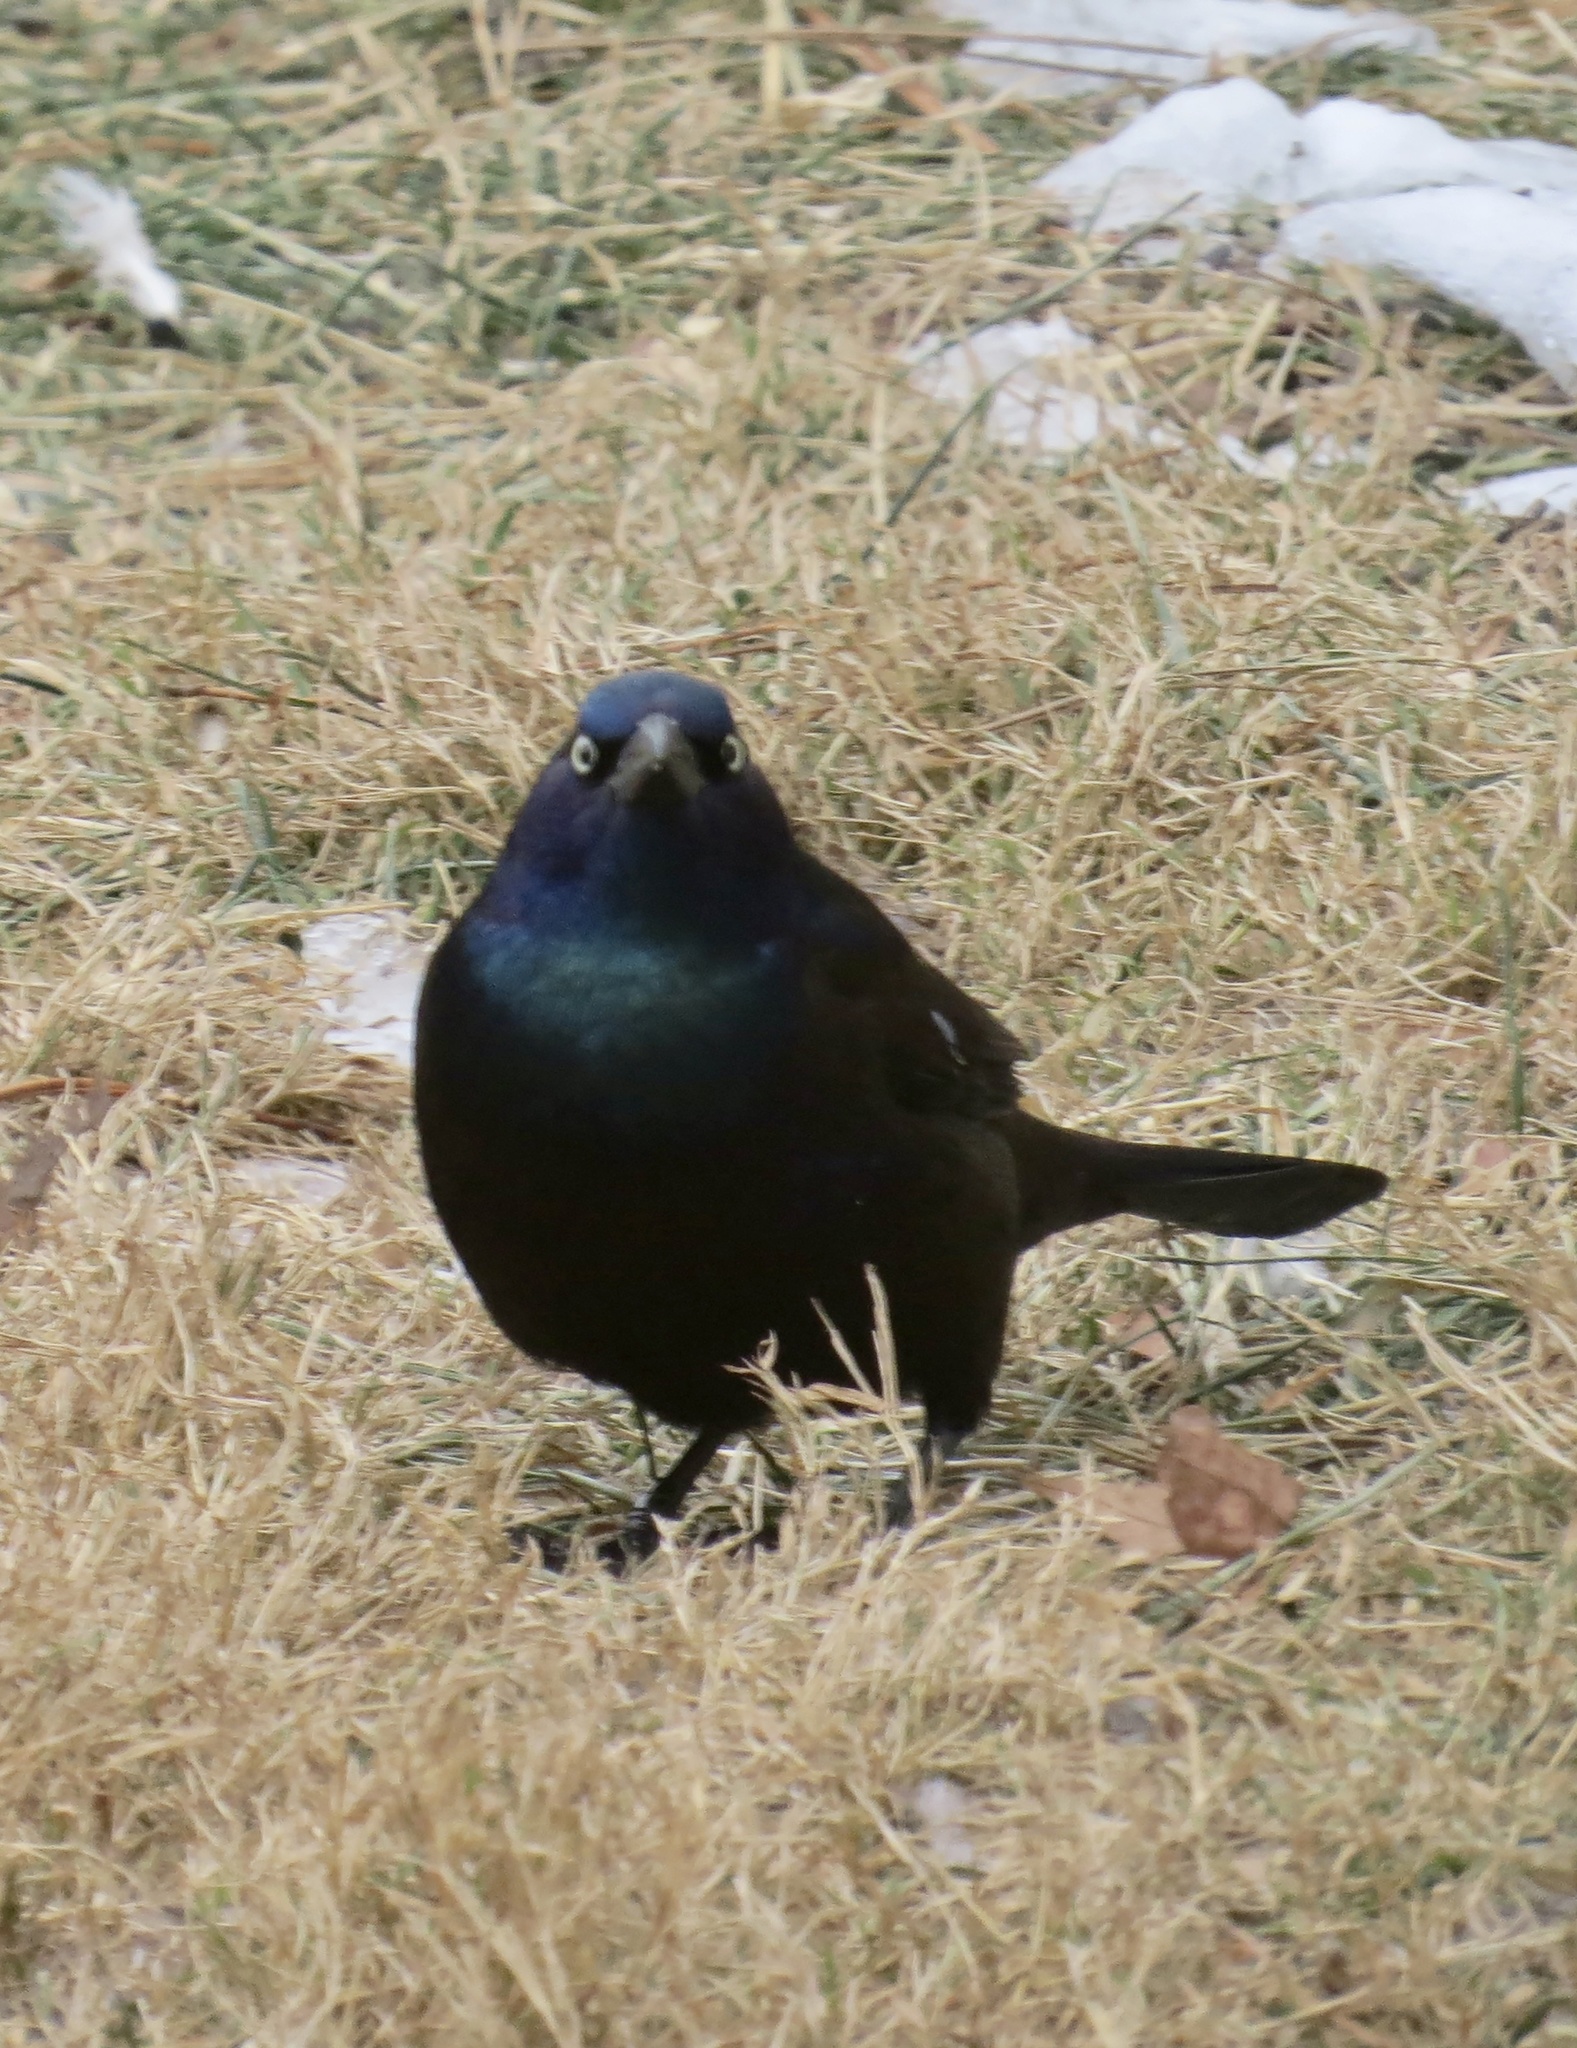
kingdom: Animalia
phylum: Chordata
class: Aves
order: Passeriformes
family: Icteridae
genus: Quiscalus
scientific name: Quiscalus quiscula
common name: Common grackle
